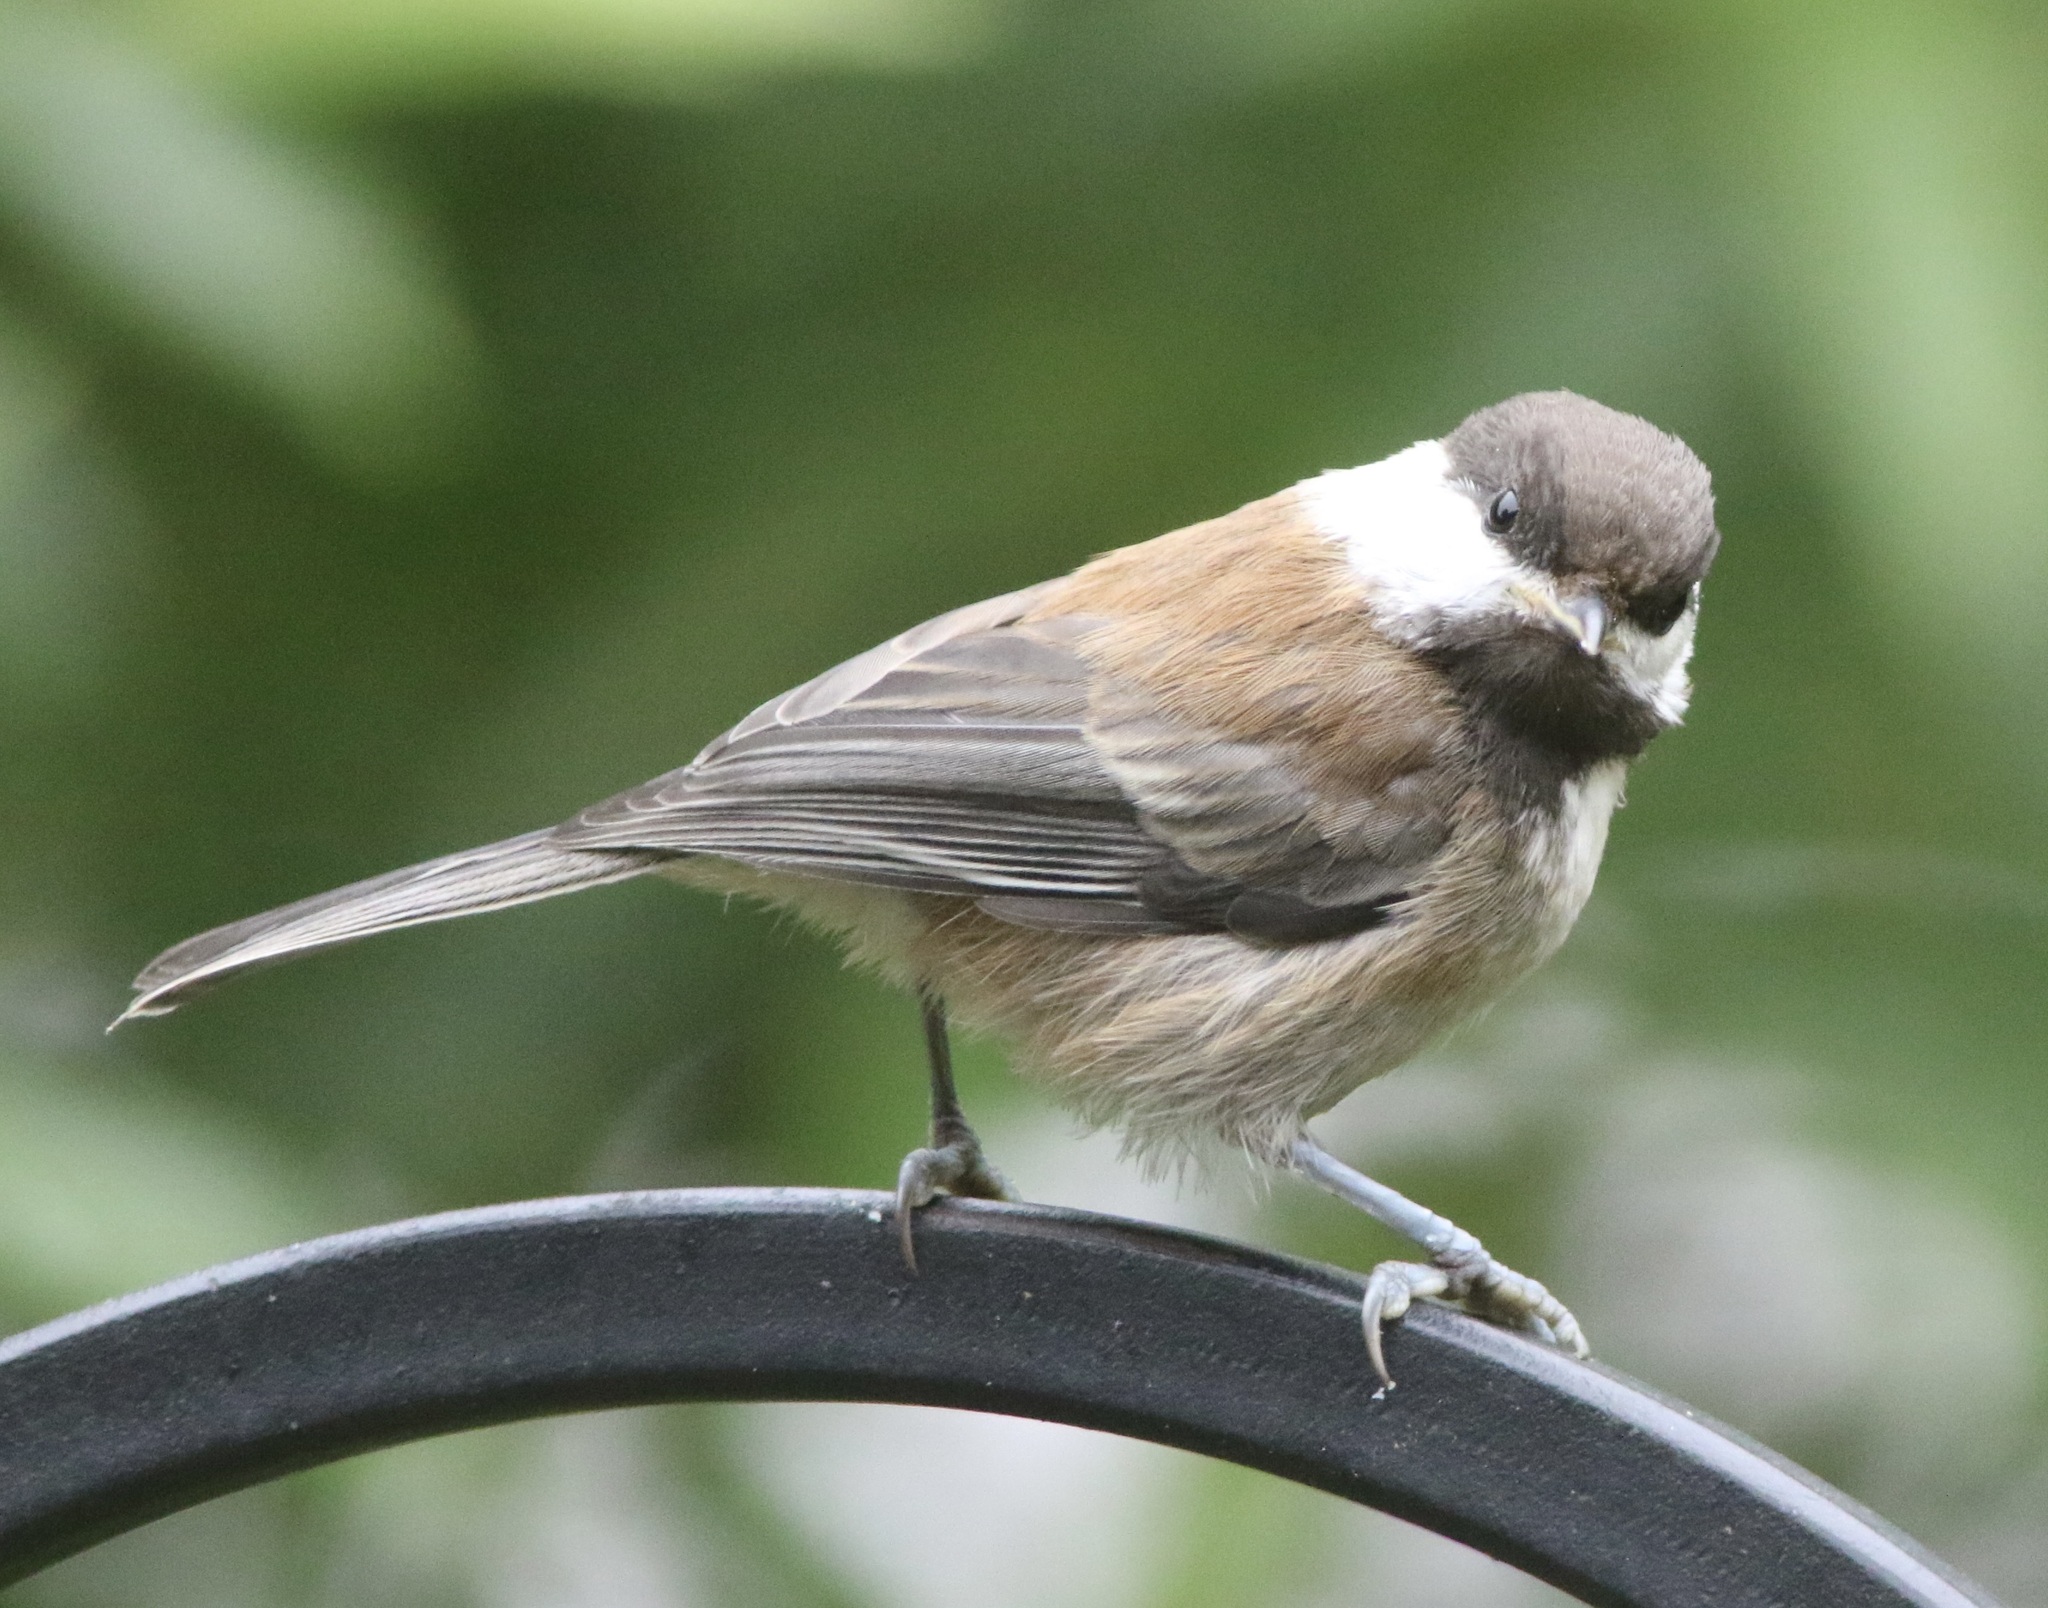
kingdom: Animalia
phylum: Chordata
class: Aves
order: Passeriformes
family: Paridae
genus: Poecile
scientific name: Poecile rufescens
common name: Chestnut-backed chickadee
